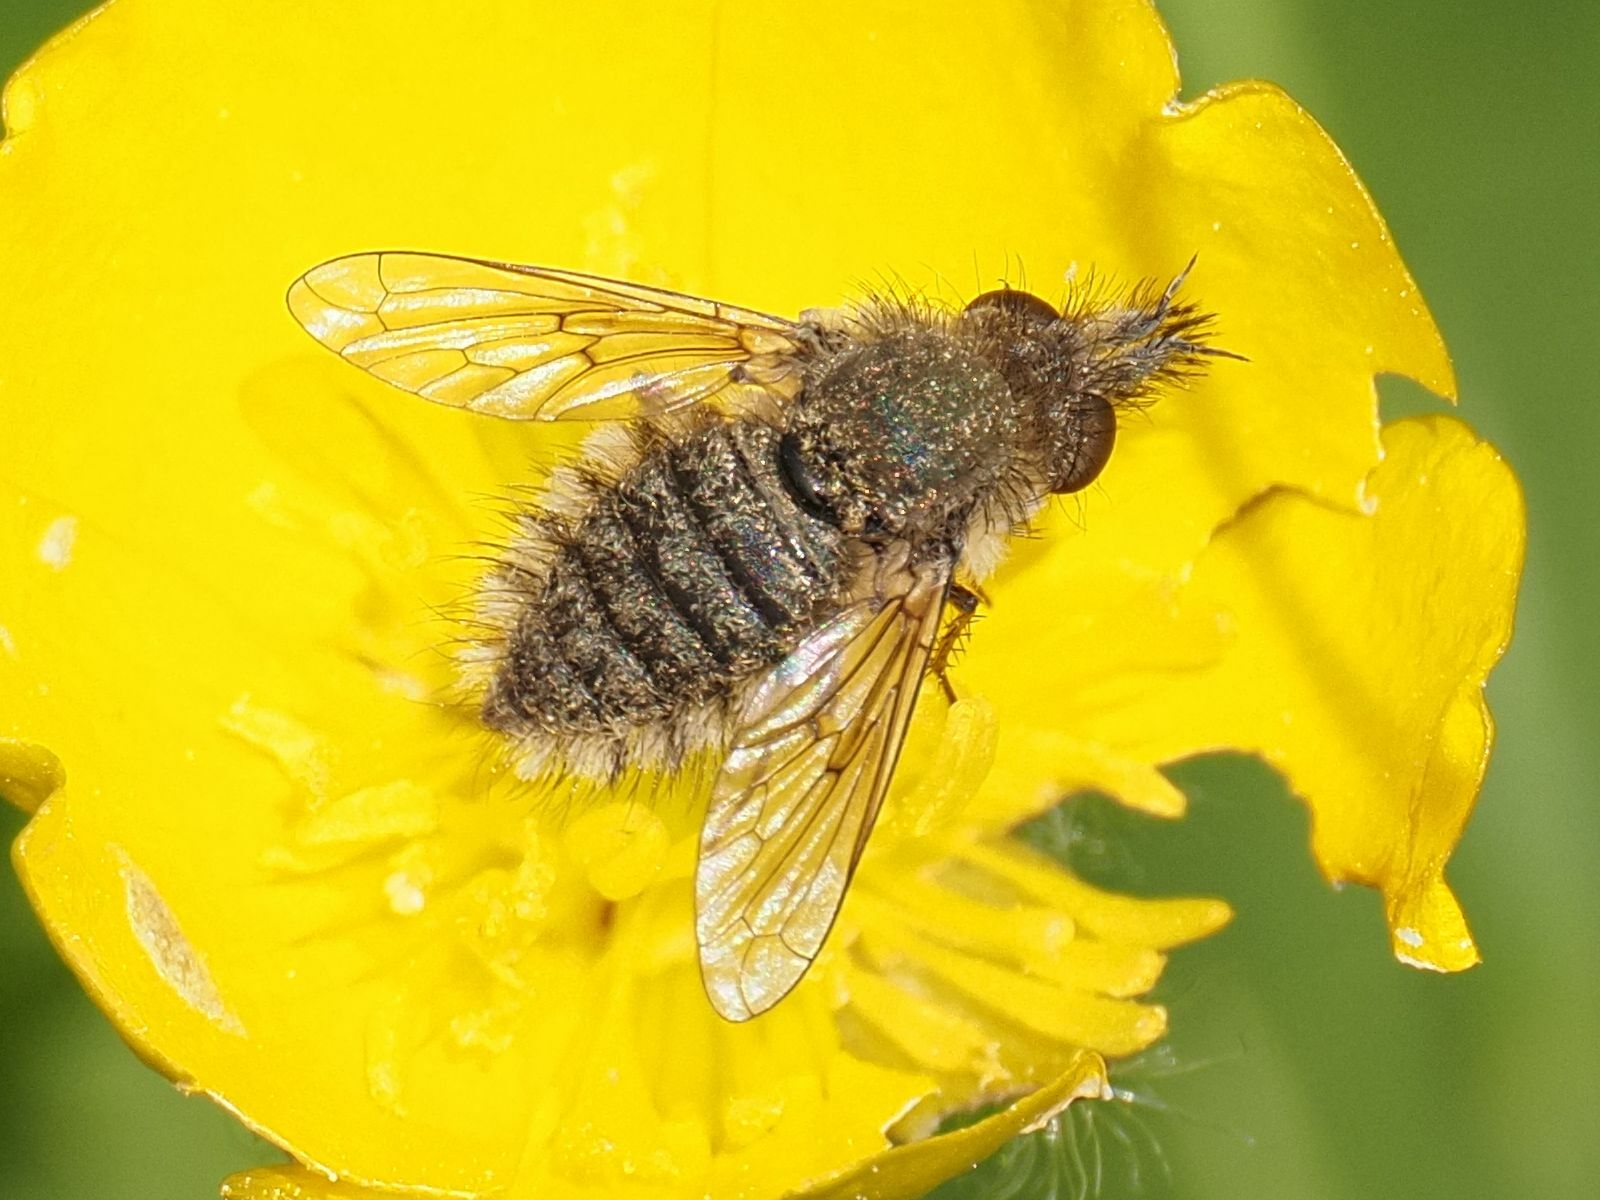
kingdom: Animalia
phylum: Arthropoda
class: Insecta
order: Diptera
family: Bombyliidae
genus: Conophorus
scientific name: Conophorus virescens
